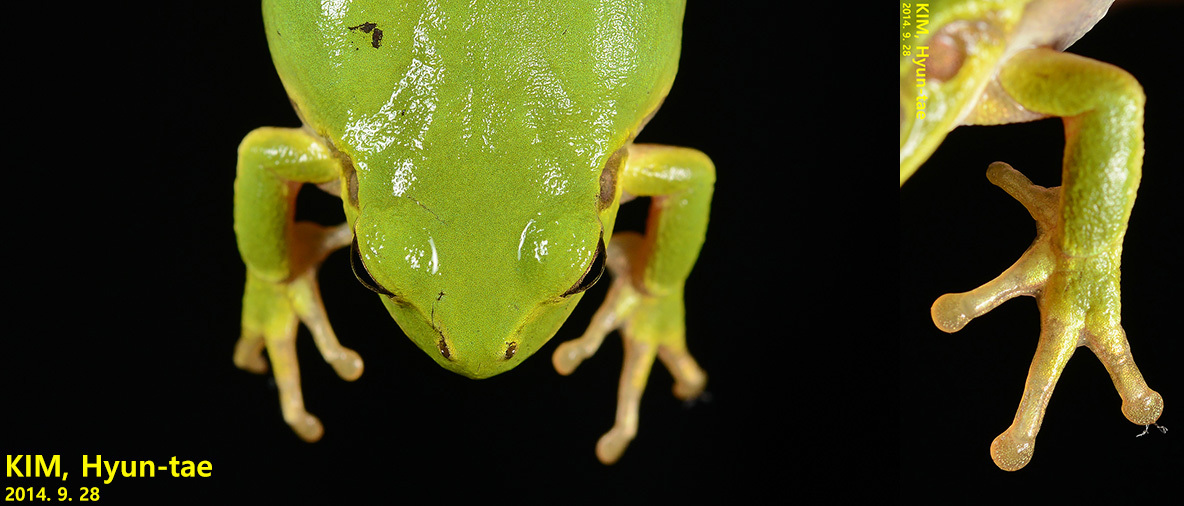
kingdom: Animalia
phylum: Chordata
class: Amphibia
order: Anura
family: Hylidae
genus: Dryophytes
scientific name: Dryophytes immaculatus
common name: North china treefrog
